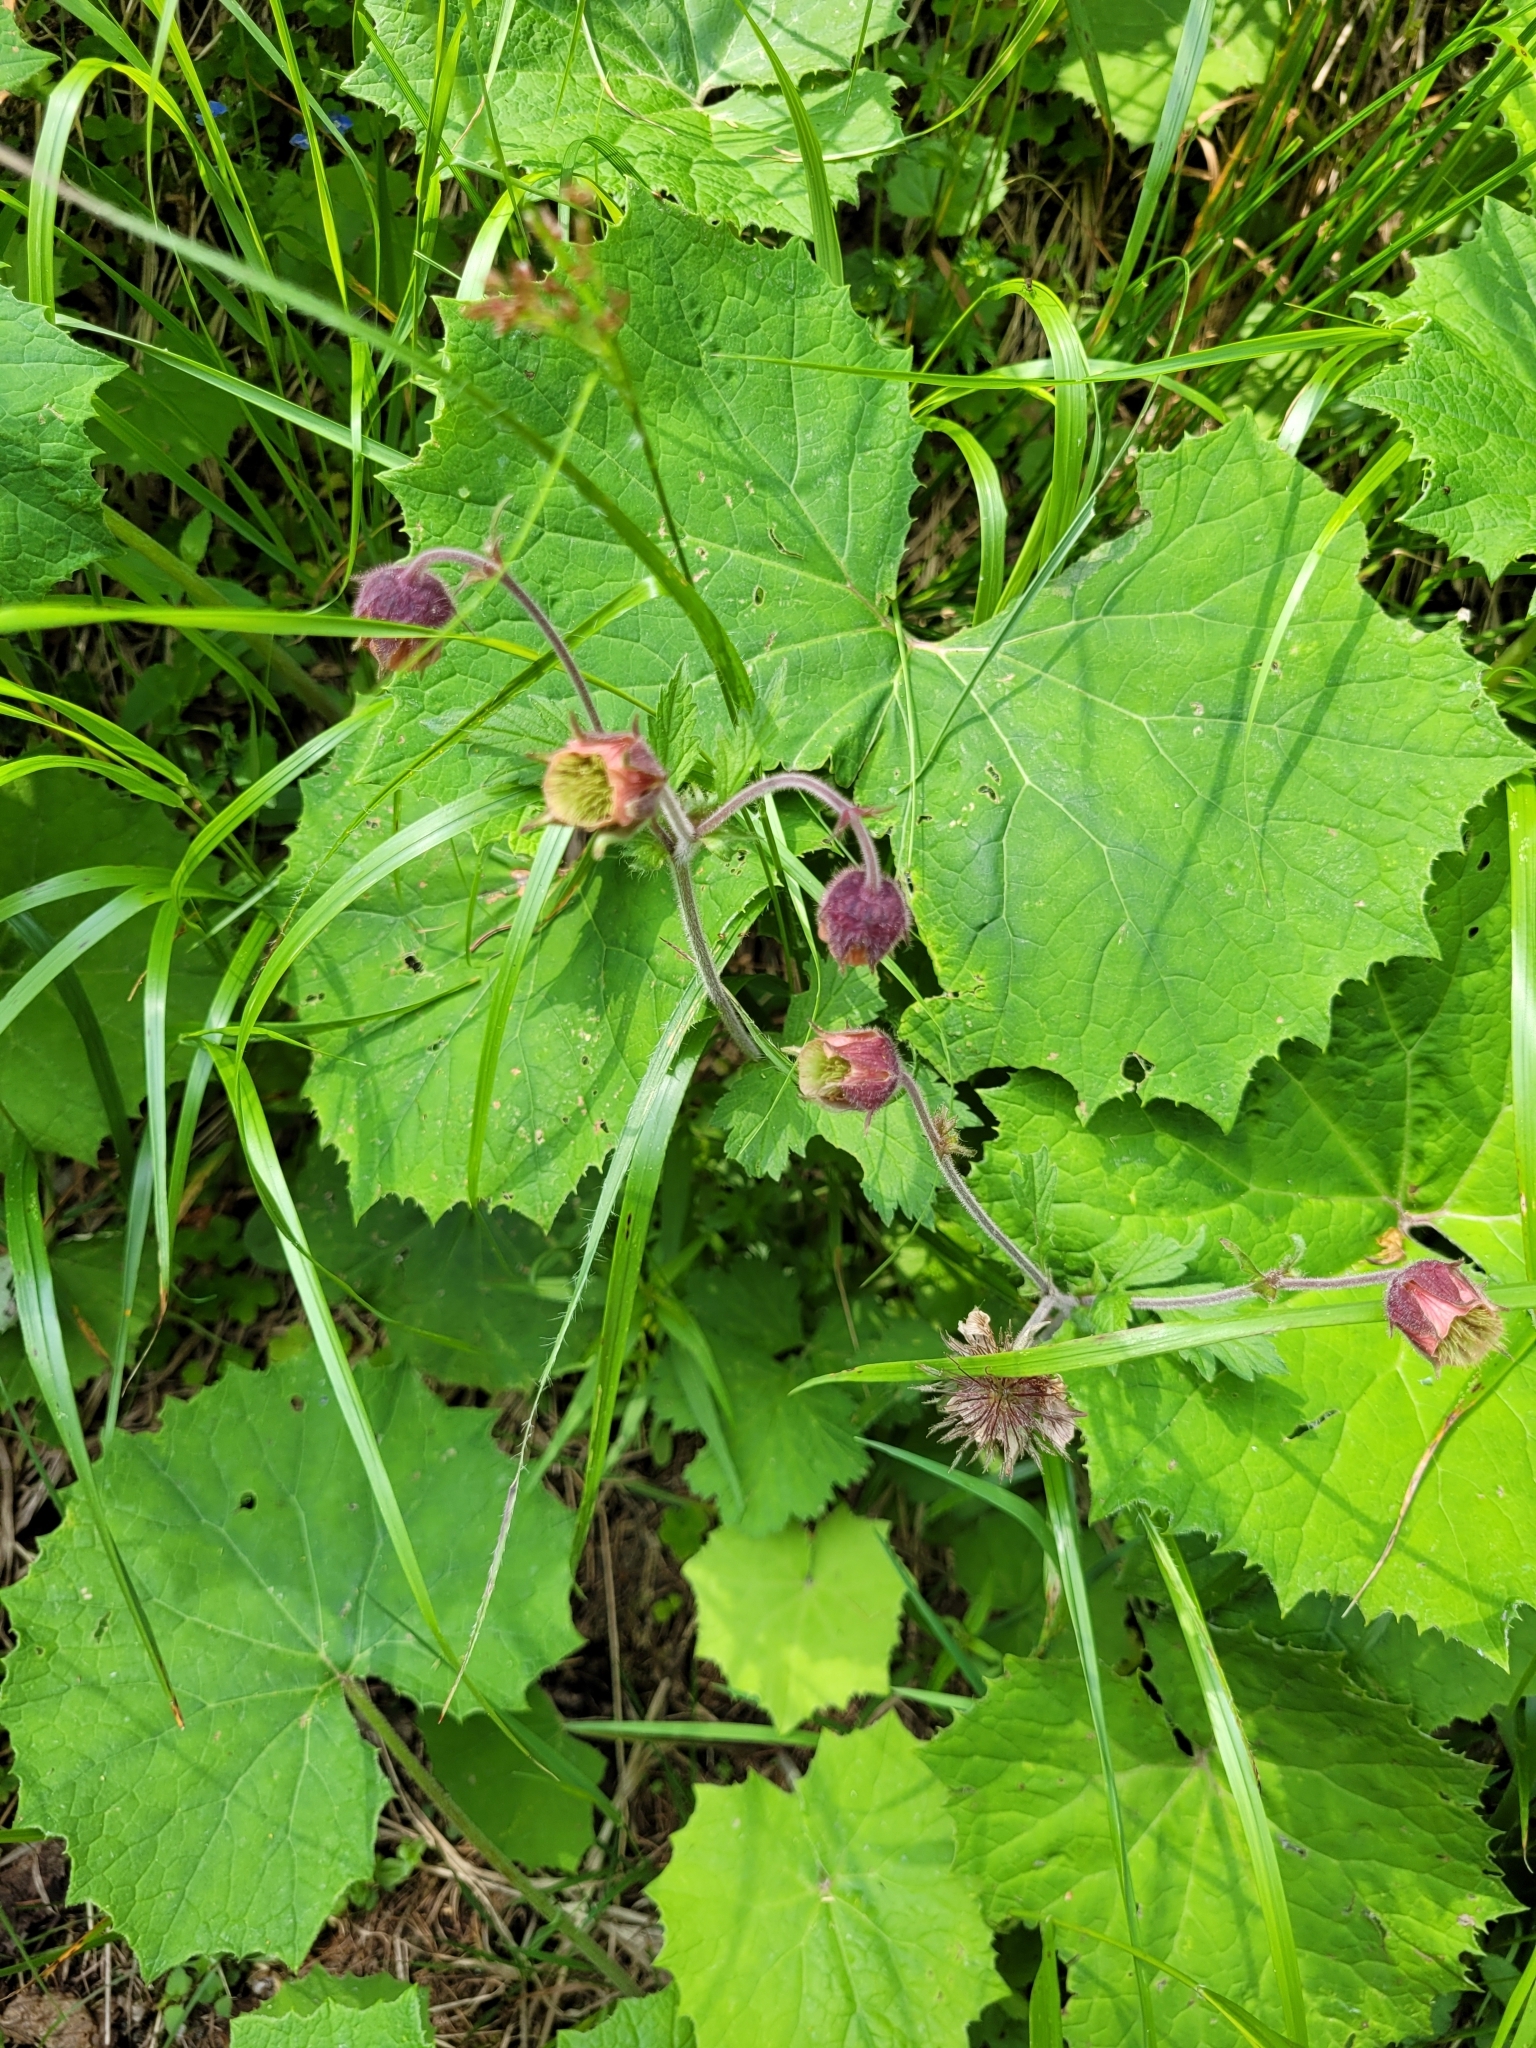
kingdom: Plantae
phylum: Tracheophyta
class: Magnoliopsida
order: Rosales
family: Rosaceae
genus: Geum
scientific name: Geum rivale
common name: Water avens
